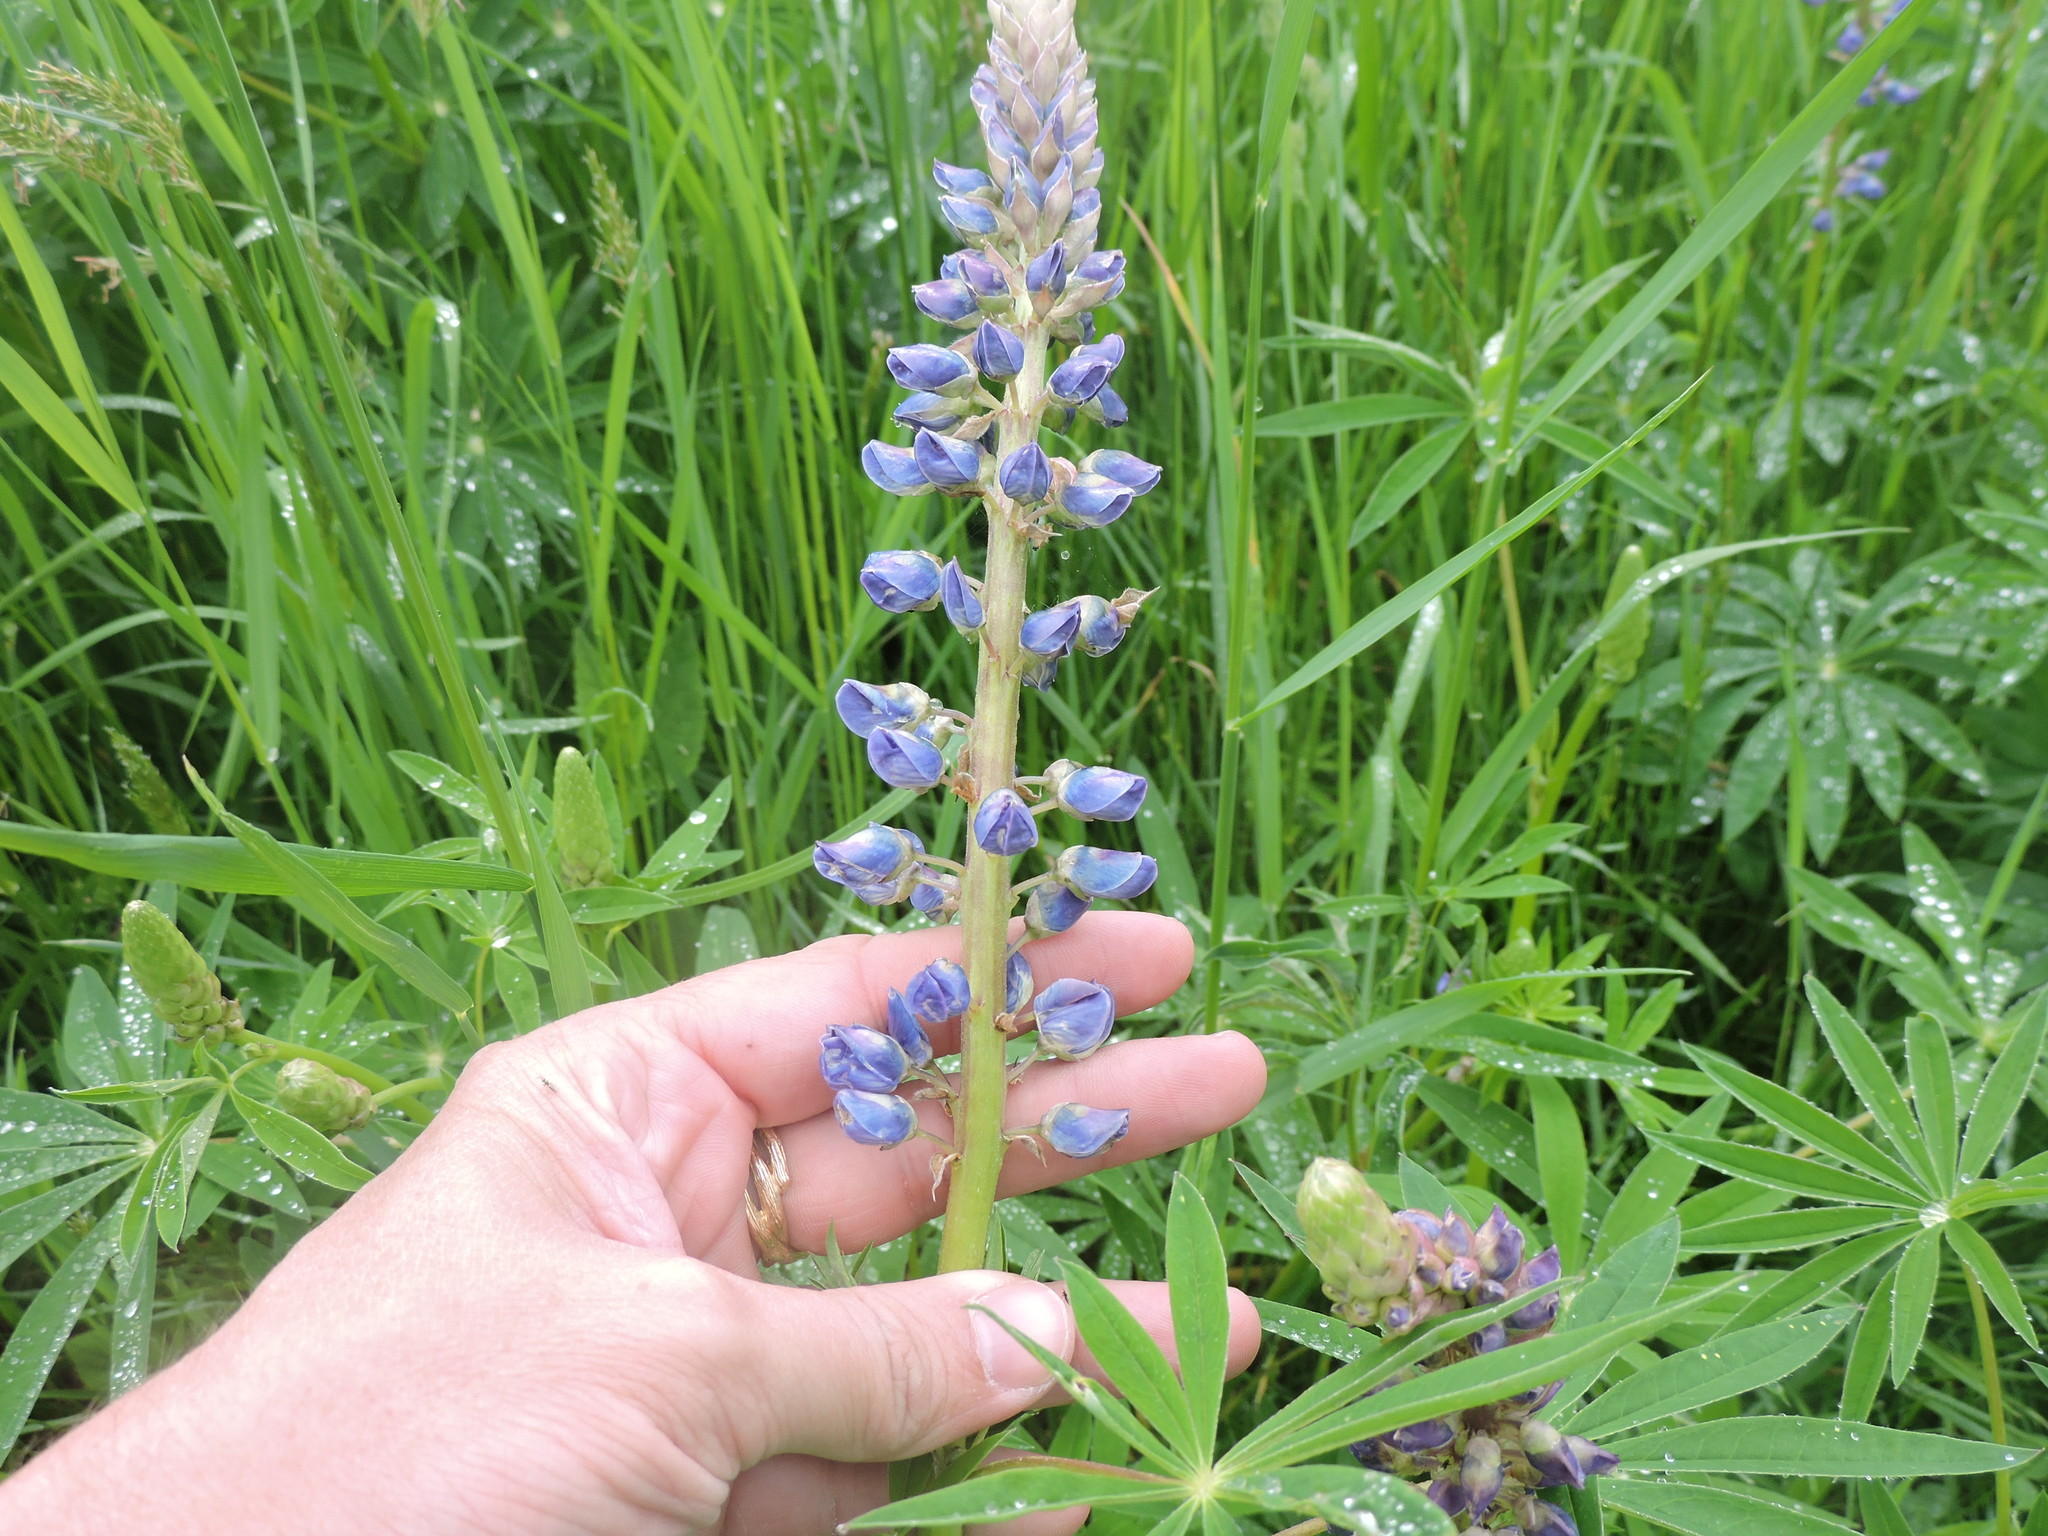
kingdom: Plantae
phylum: Tracheophyta
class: Magnoliopsida
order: Fabales
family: Fabaceae
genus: Lupinus
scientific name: Lupinus polyphyllus
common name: Garden lupin
